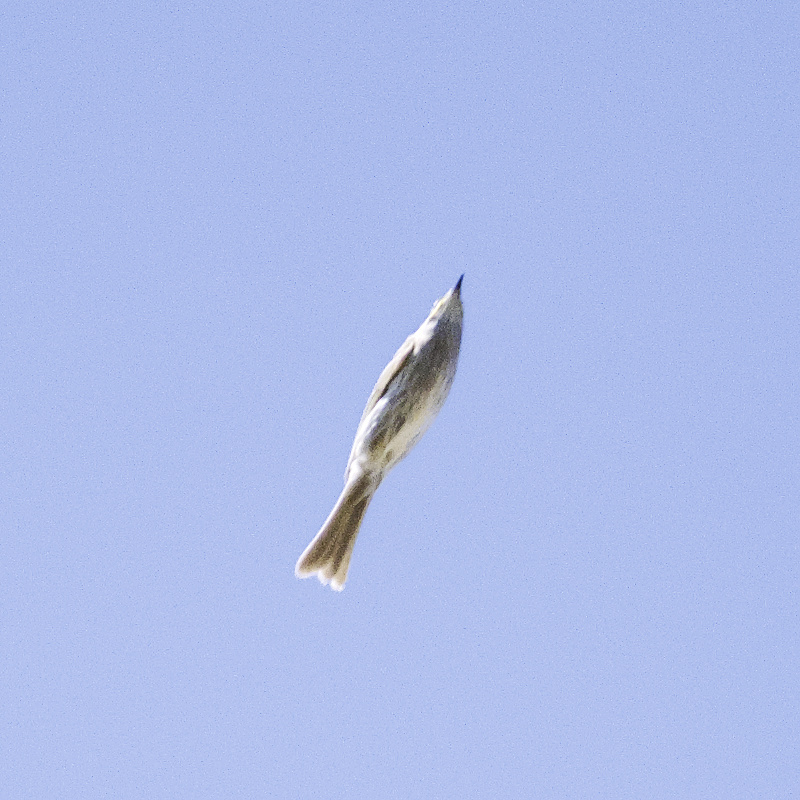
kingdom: Animalia
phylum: Chordata
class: Aves
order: Passeriformes
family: Meliphagidae
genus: Caligavis
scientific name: Caligavis chrysops
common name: Yellow-faced honeyeater
